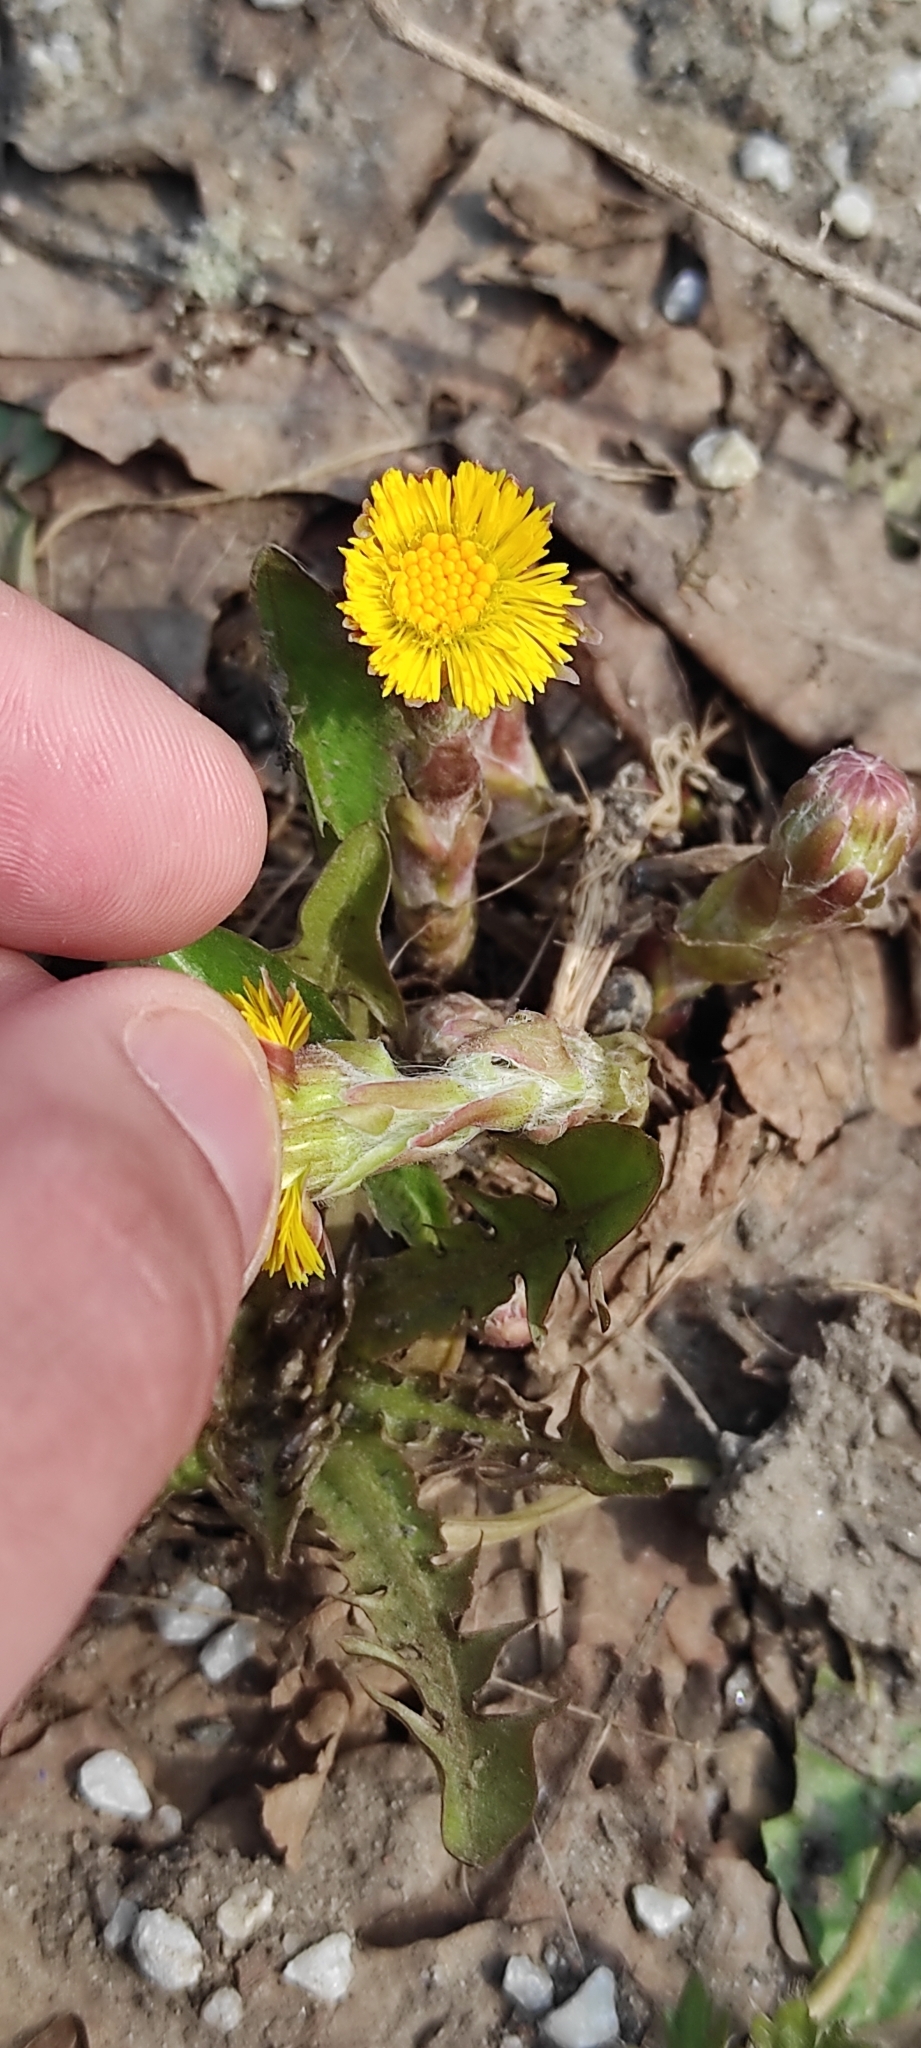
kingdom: Plantae
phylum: Tracheophyta
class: Magnoliopsida
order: Asterales
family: Asteraceae
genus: Tussilago
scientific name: Tussilago farfara
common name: Coltsfoot
